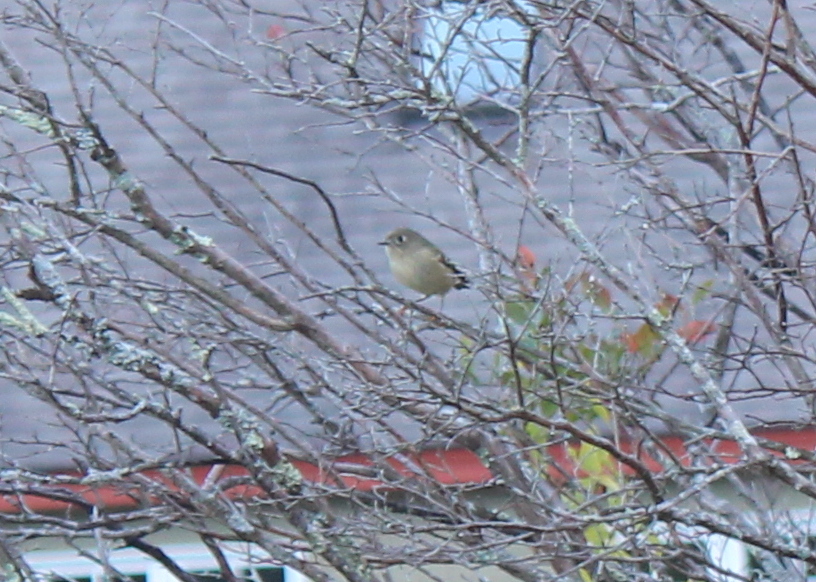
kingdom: Animalia
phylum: Chordata
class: Aves
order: Passeriformes
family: Regulidae
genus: Regulus
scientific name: Regulus calendula
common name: Ruby-crowned kinglet
